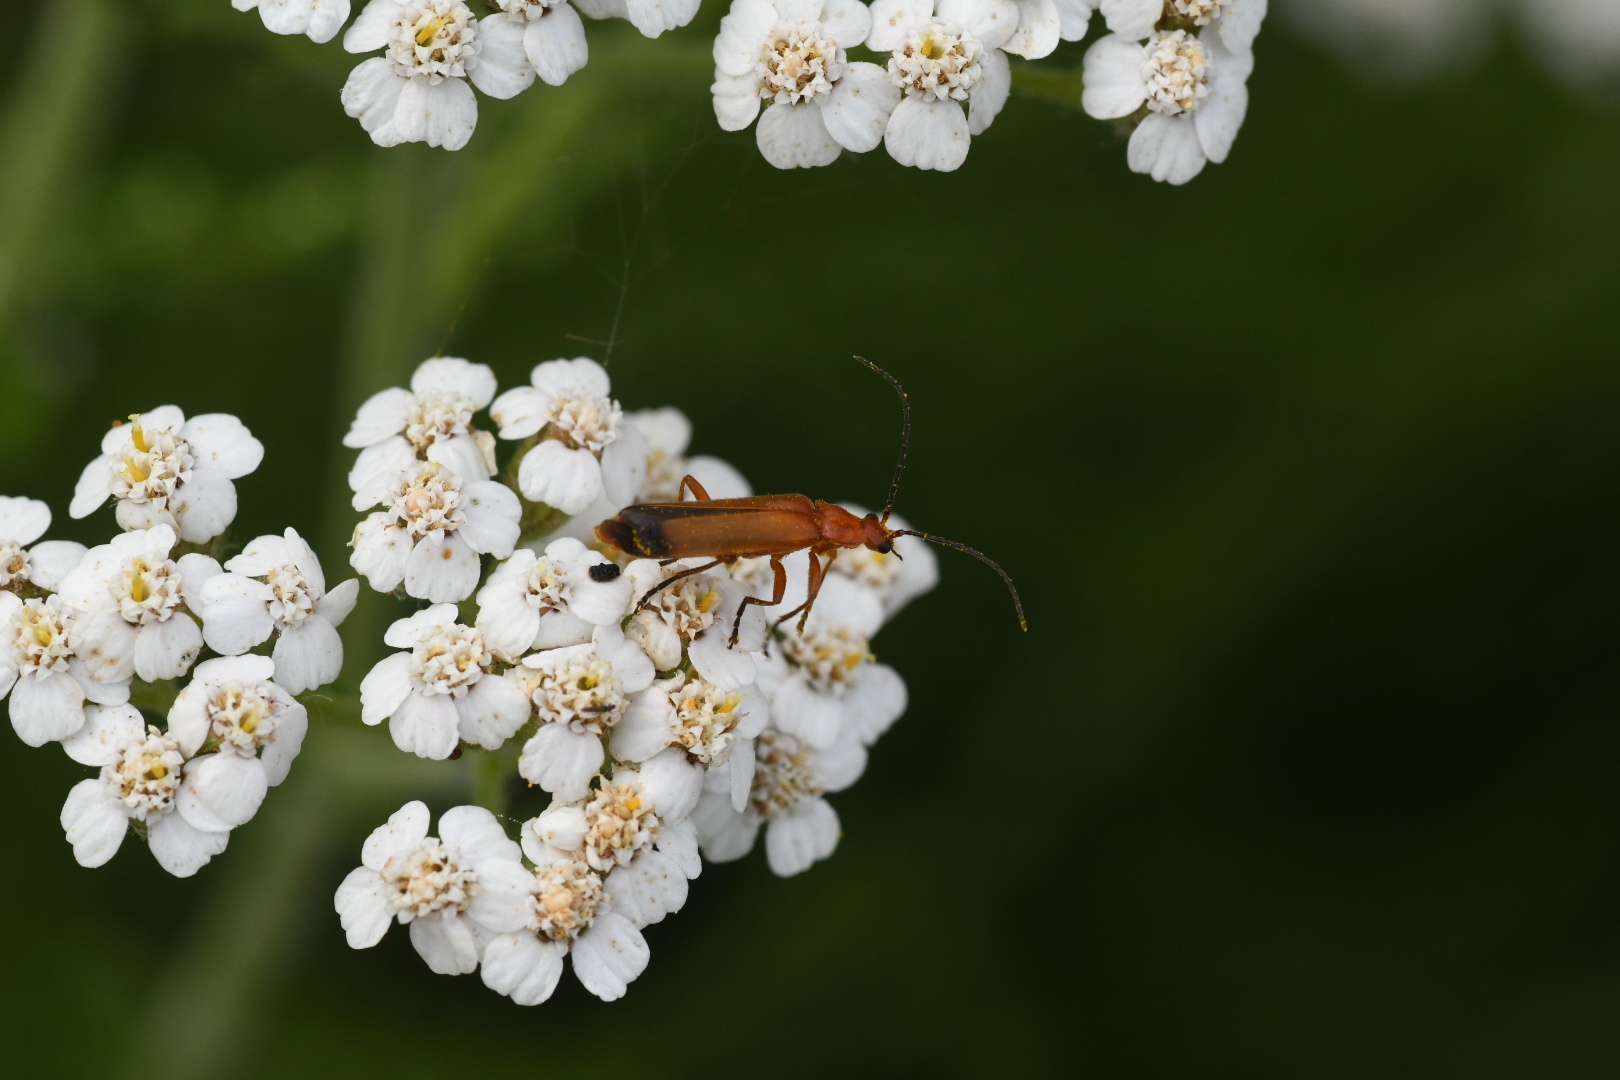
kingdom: Animalia
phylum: Arthropoda
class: Insecta
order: Coleoptera
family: Cantharidae
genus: Rhagonycha
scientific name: Rhagonycha fulva
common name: Common red soldier beetle
